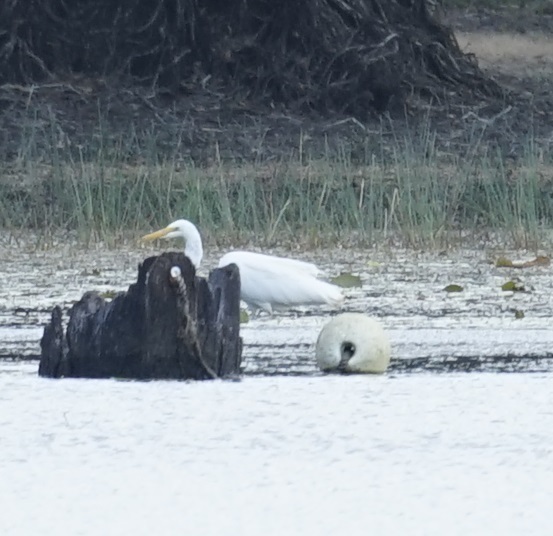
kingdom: Animalia
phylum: Chordata
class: Aves
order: Pelecaniformes
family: Ardeidae
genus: Ardea
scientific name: Ardea alba
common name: Great egret
